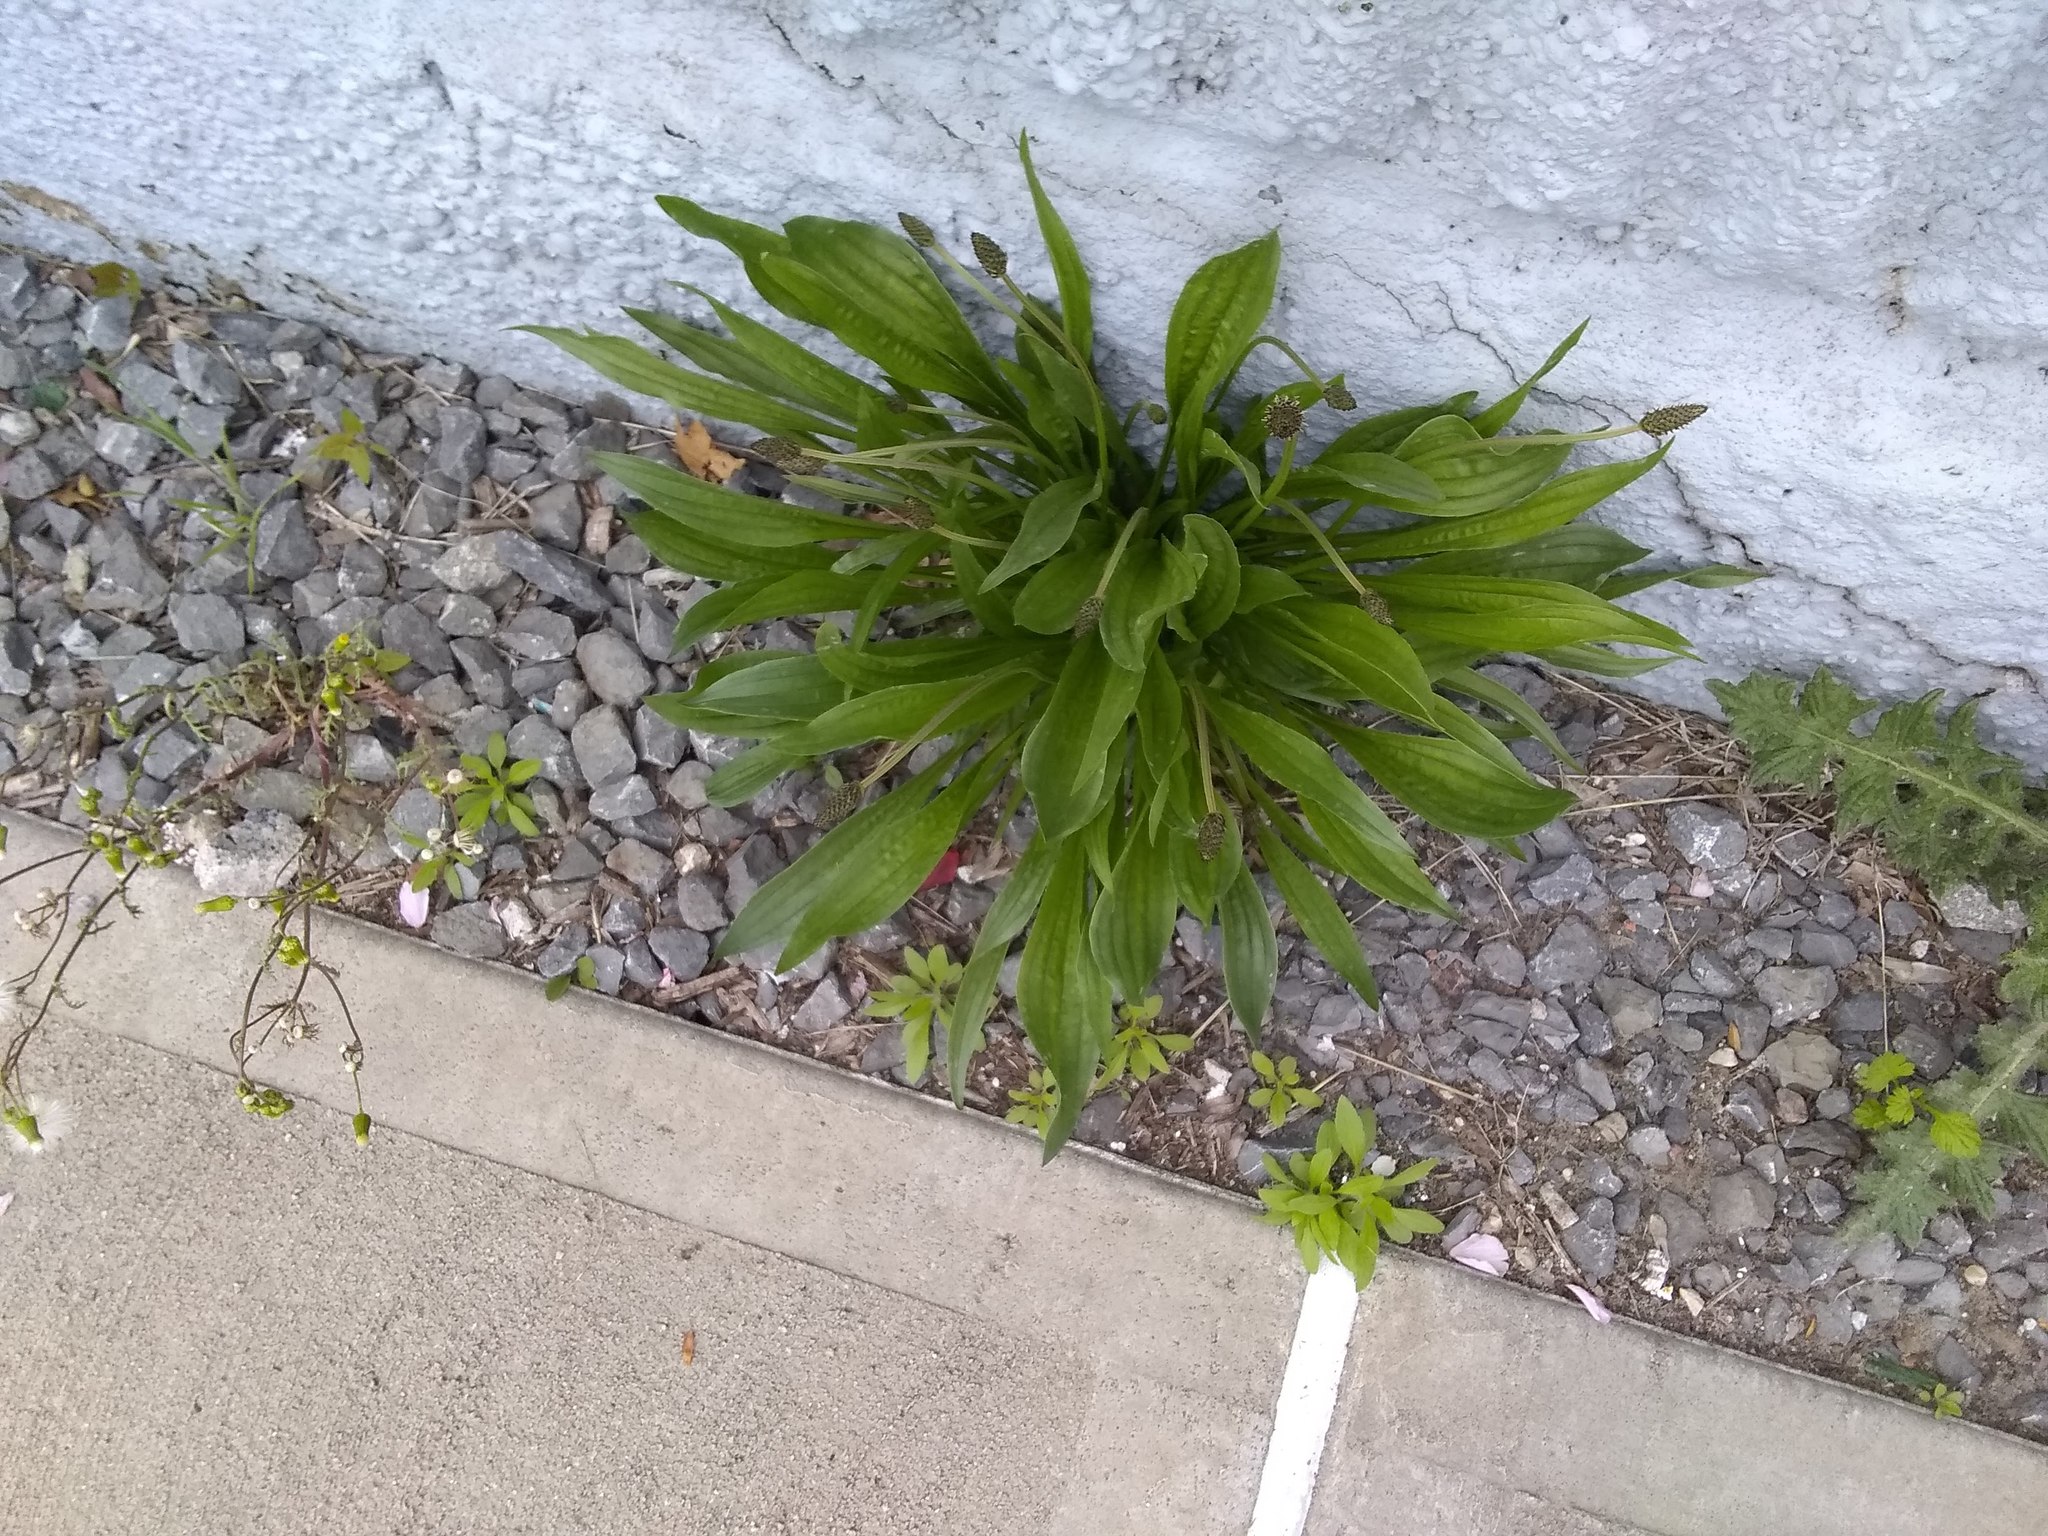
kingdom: Plantae
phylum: Tracheophyta
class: Magnoliopsida
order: Lamiales
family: Plantaginaceae
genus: Plantago
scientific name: Plantago lanceolata
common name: Ribwort plantain
